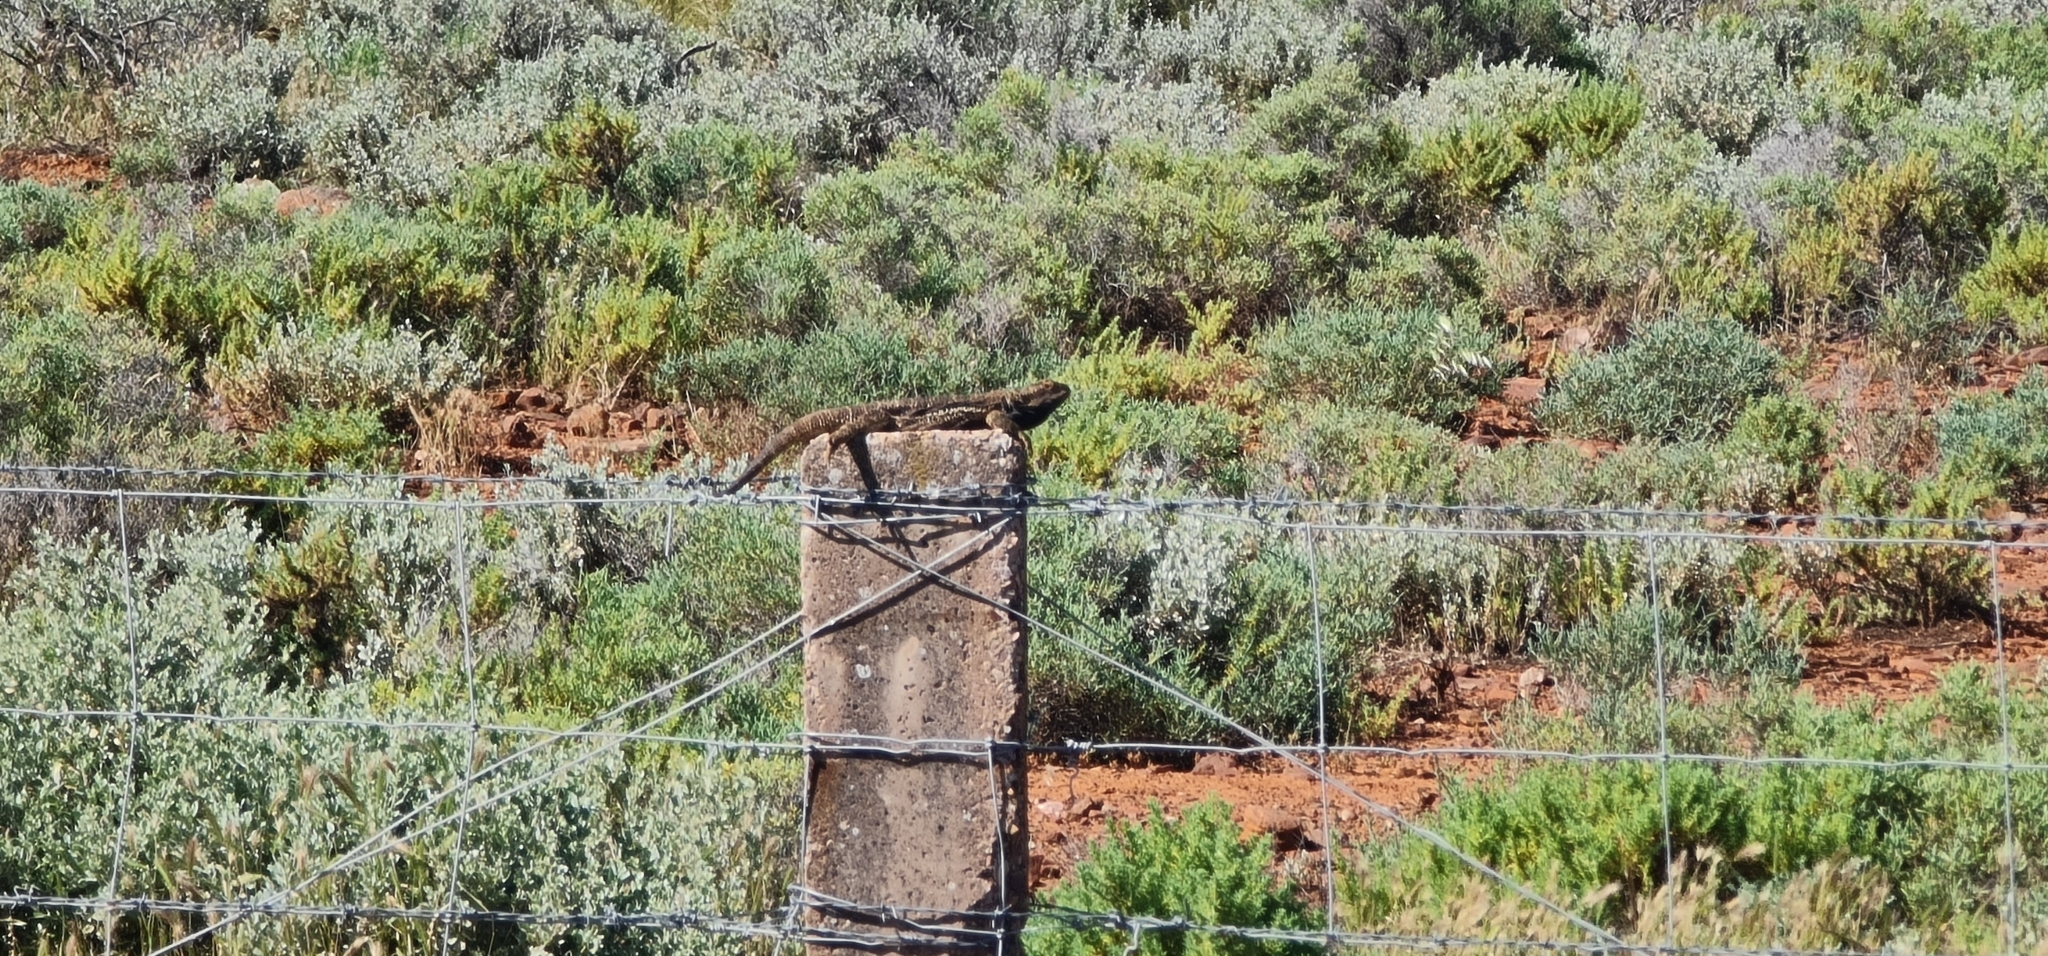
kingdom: Animalia
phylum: Chordata
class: Squamata
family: Agamidae
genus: Pogona
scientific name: Pogona vitticeps
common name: Central bearded dragon
